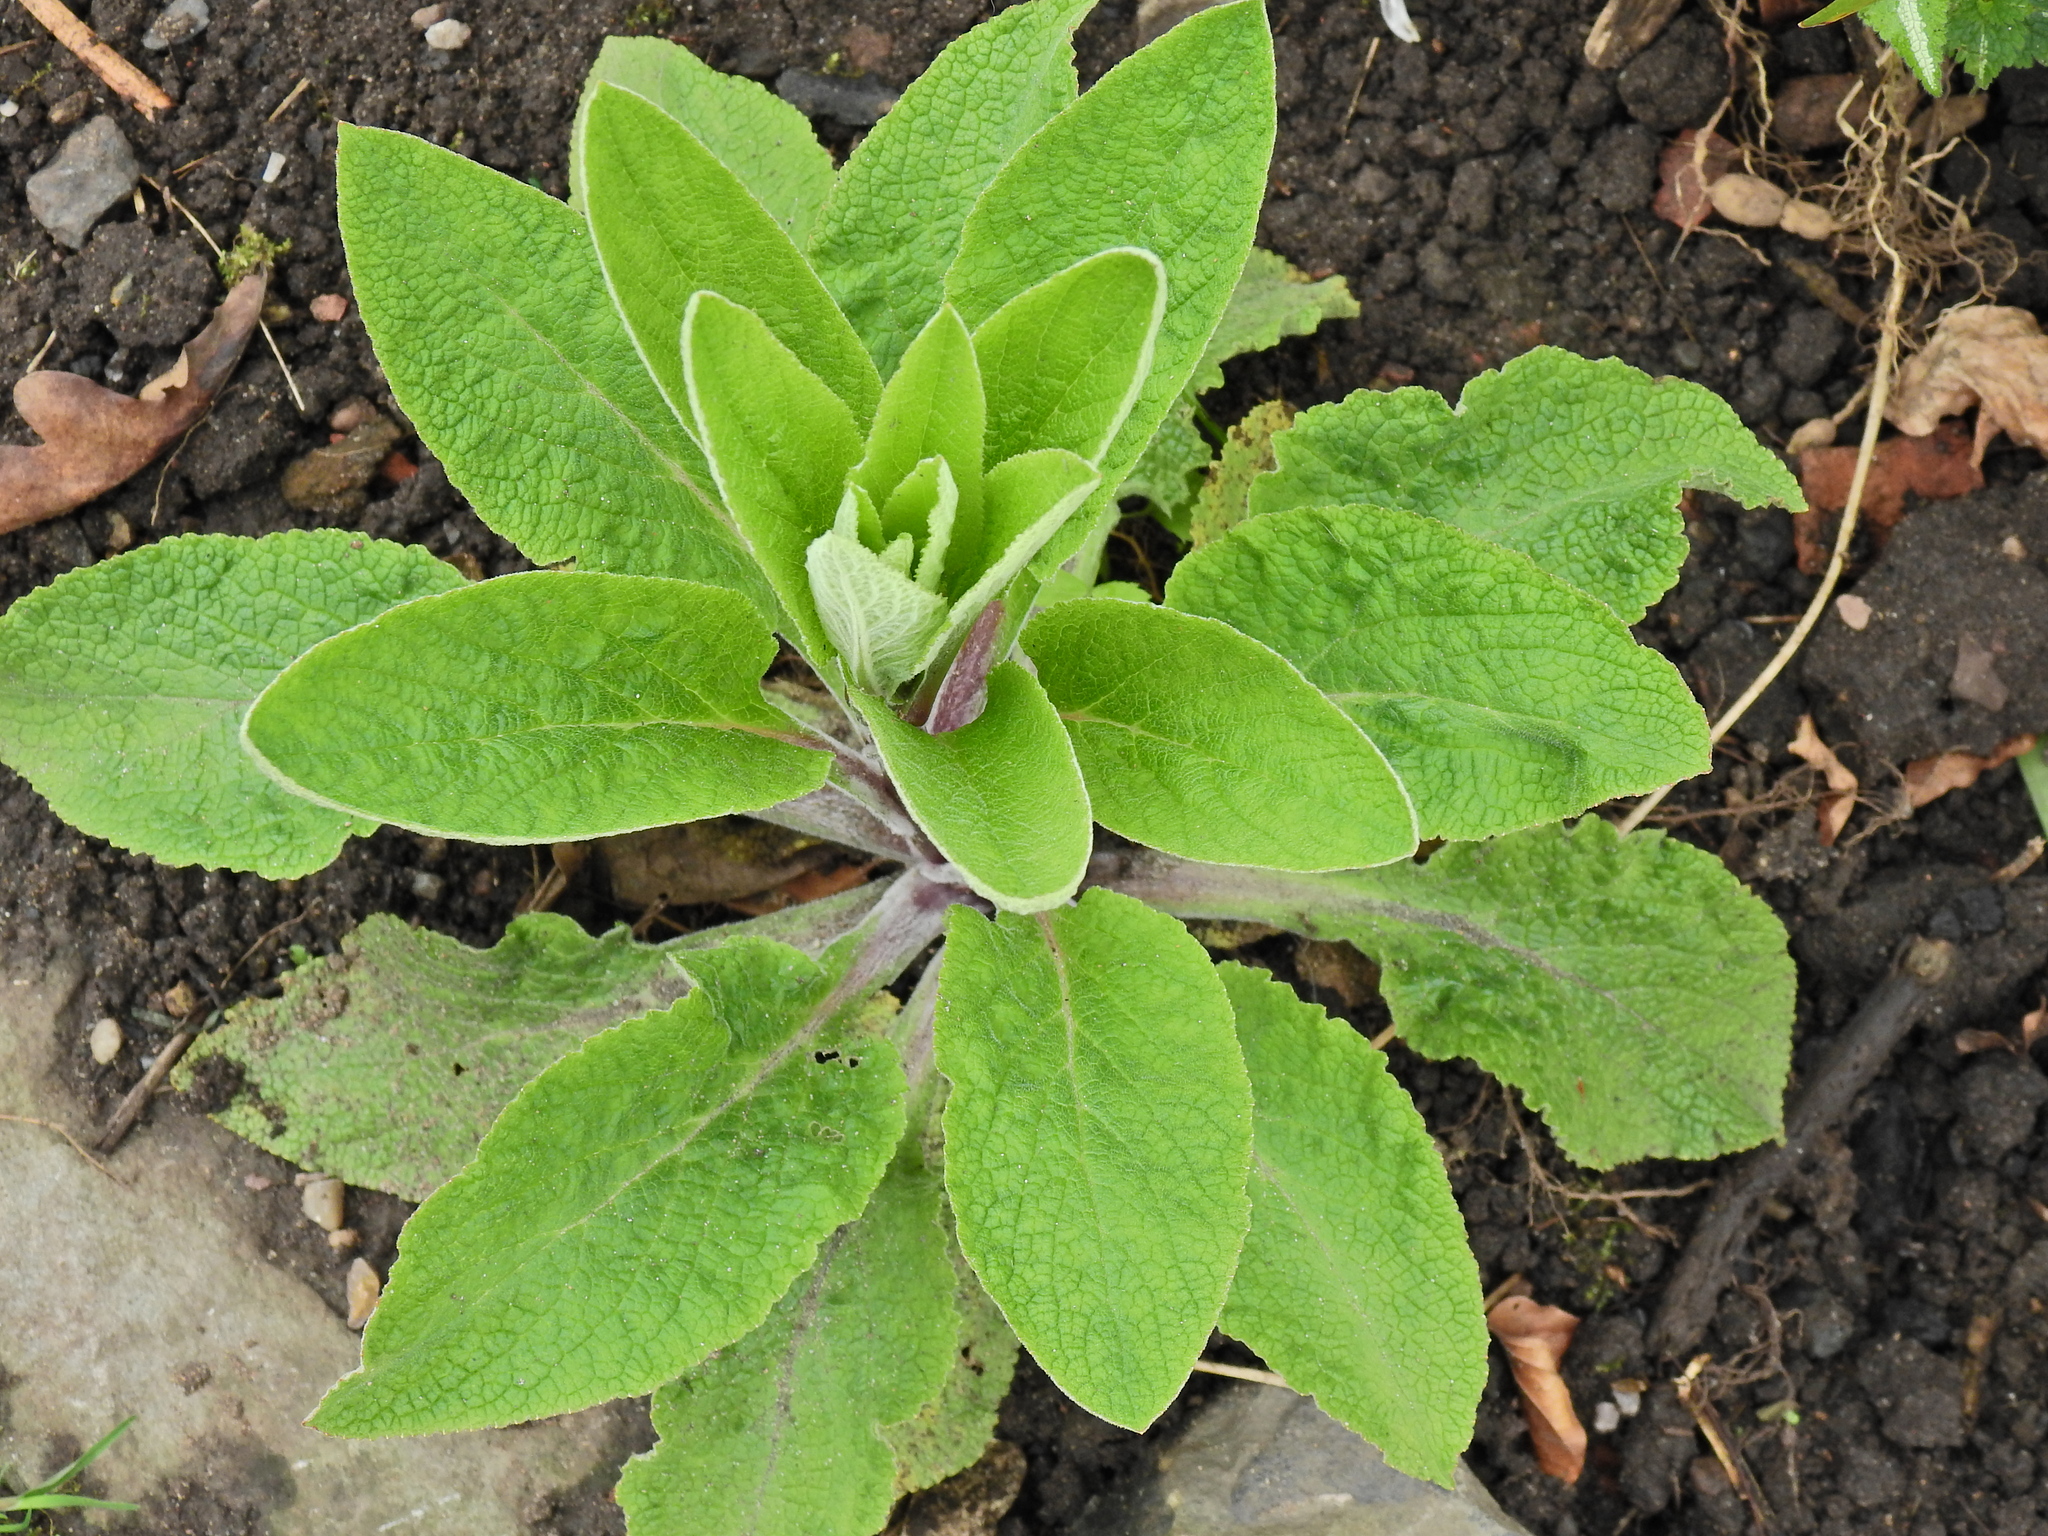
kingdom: Plantae
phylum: Tracheophyta
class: Magnoliopsida
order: Lamiales
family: Plantaginaceae
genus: Digitalis
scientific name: Digitalis purpurea
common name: Foxglove
